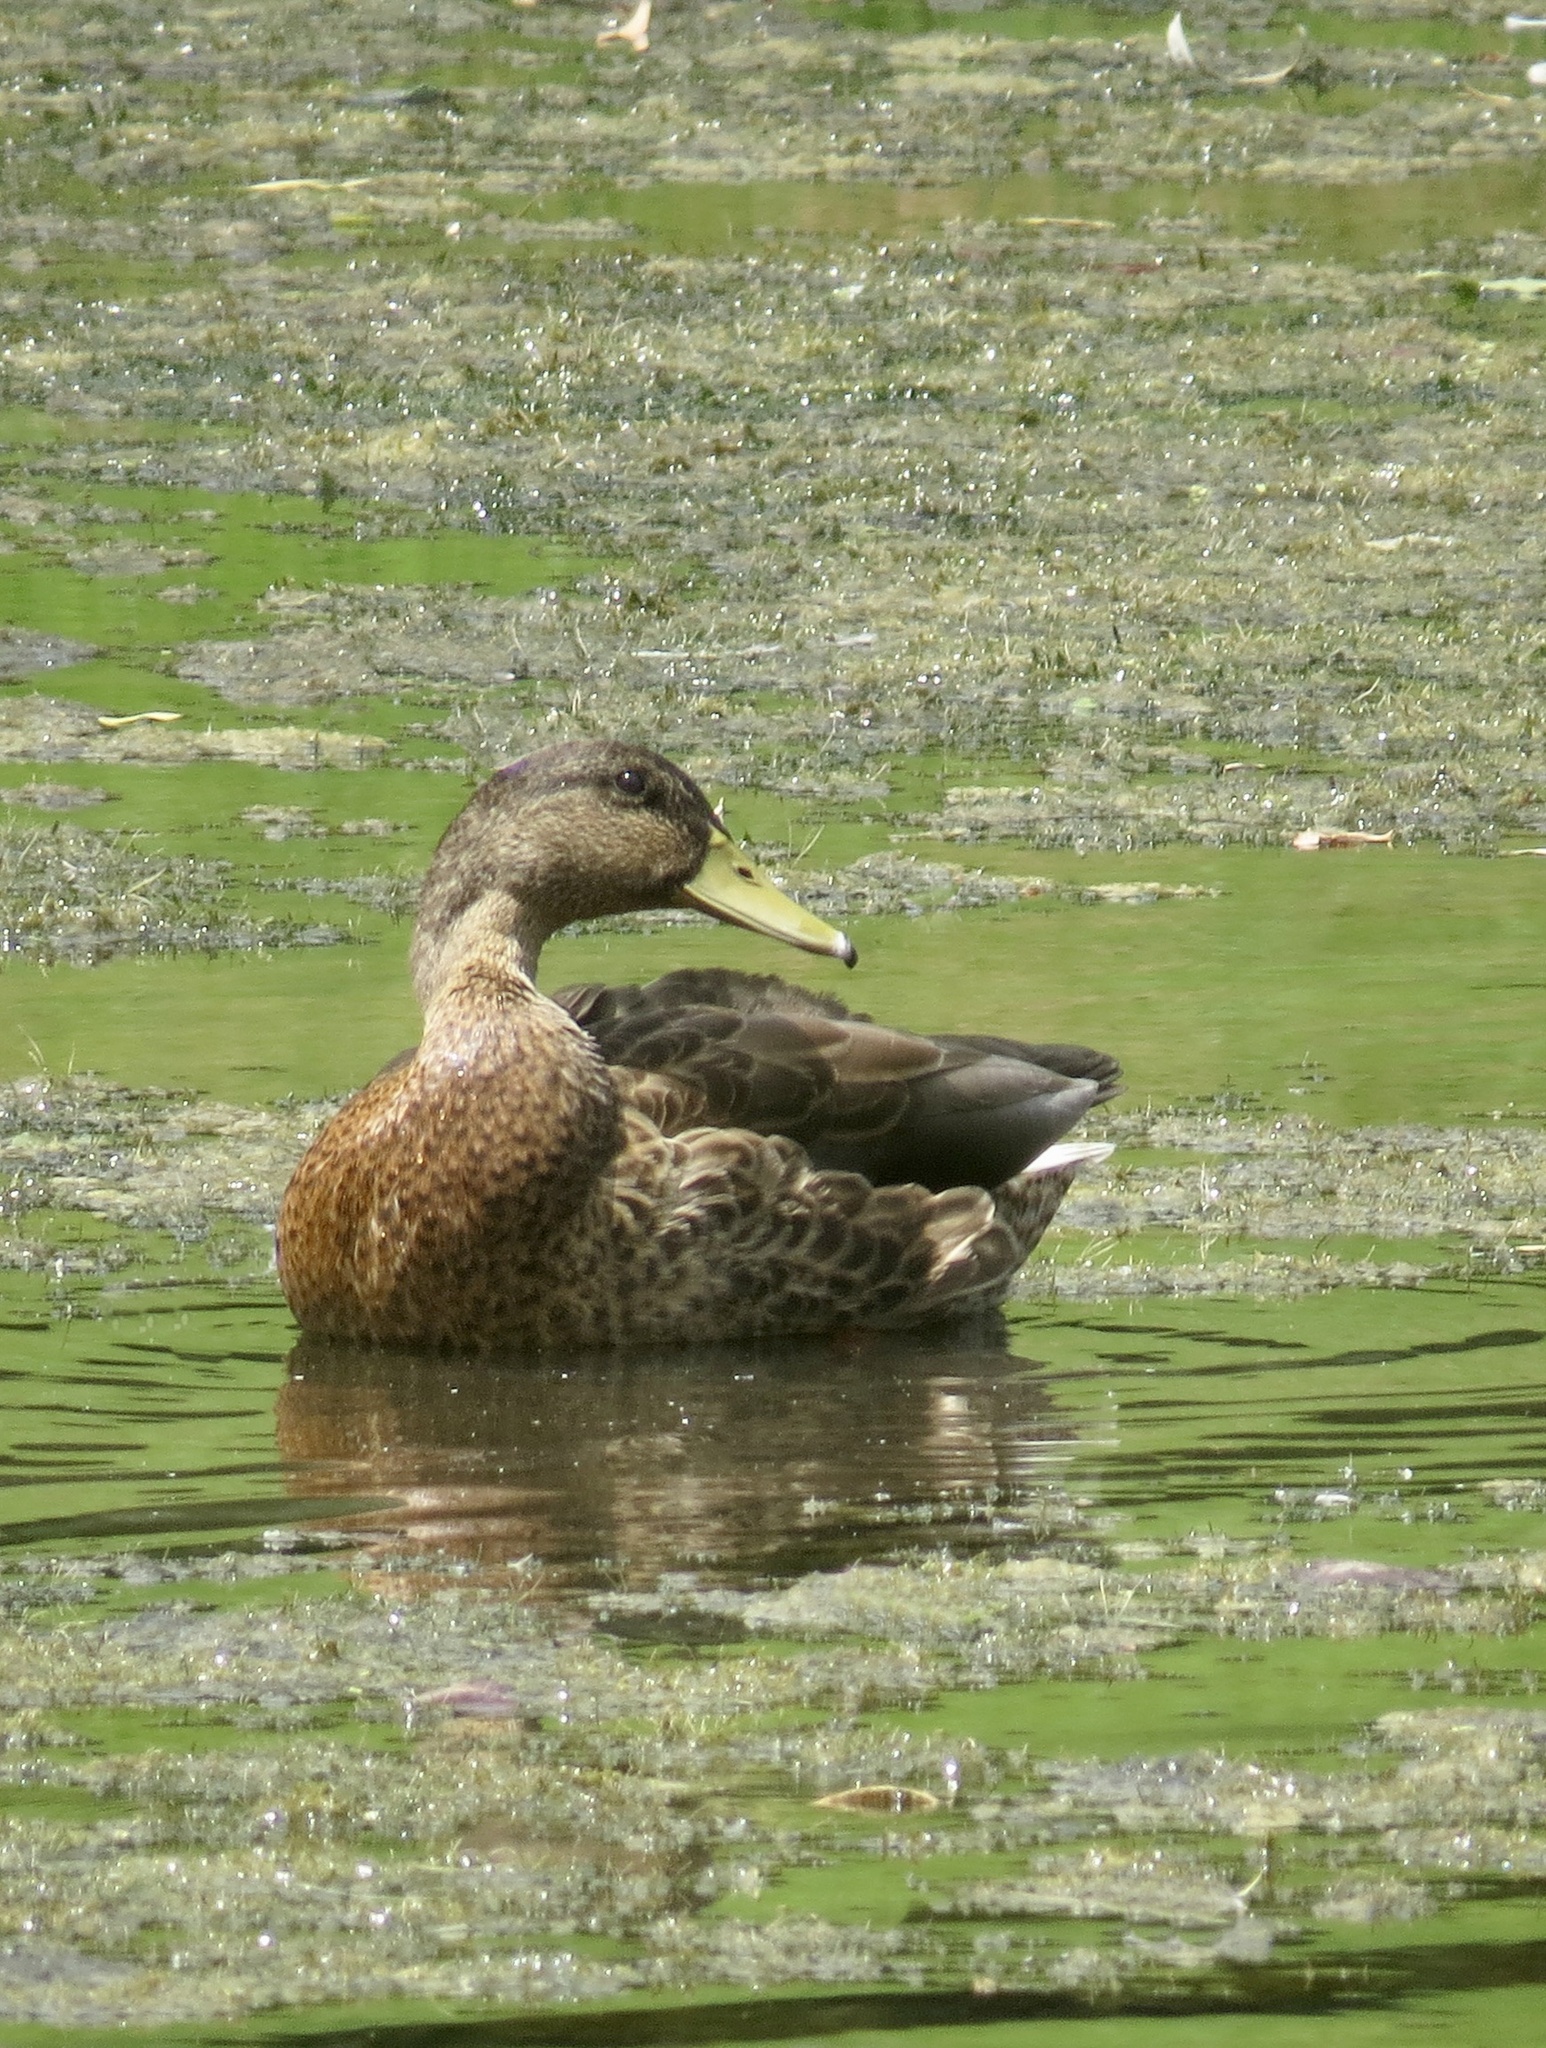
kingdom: Animalia
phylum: Chordata
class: Aves
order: Anseriformes
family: Anatidae
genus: Anas
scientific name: Anas platyrhynchos
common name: Mallard
